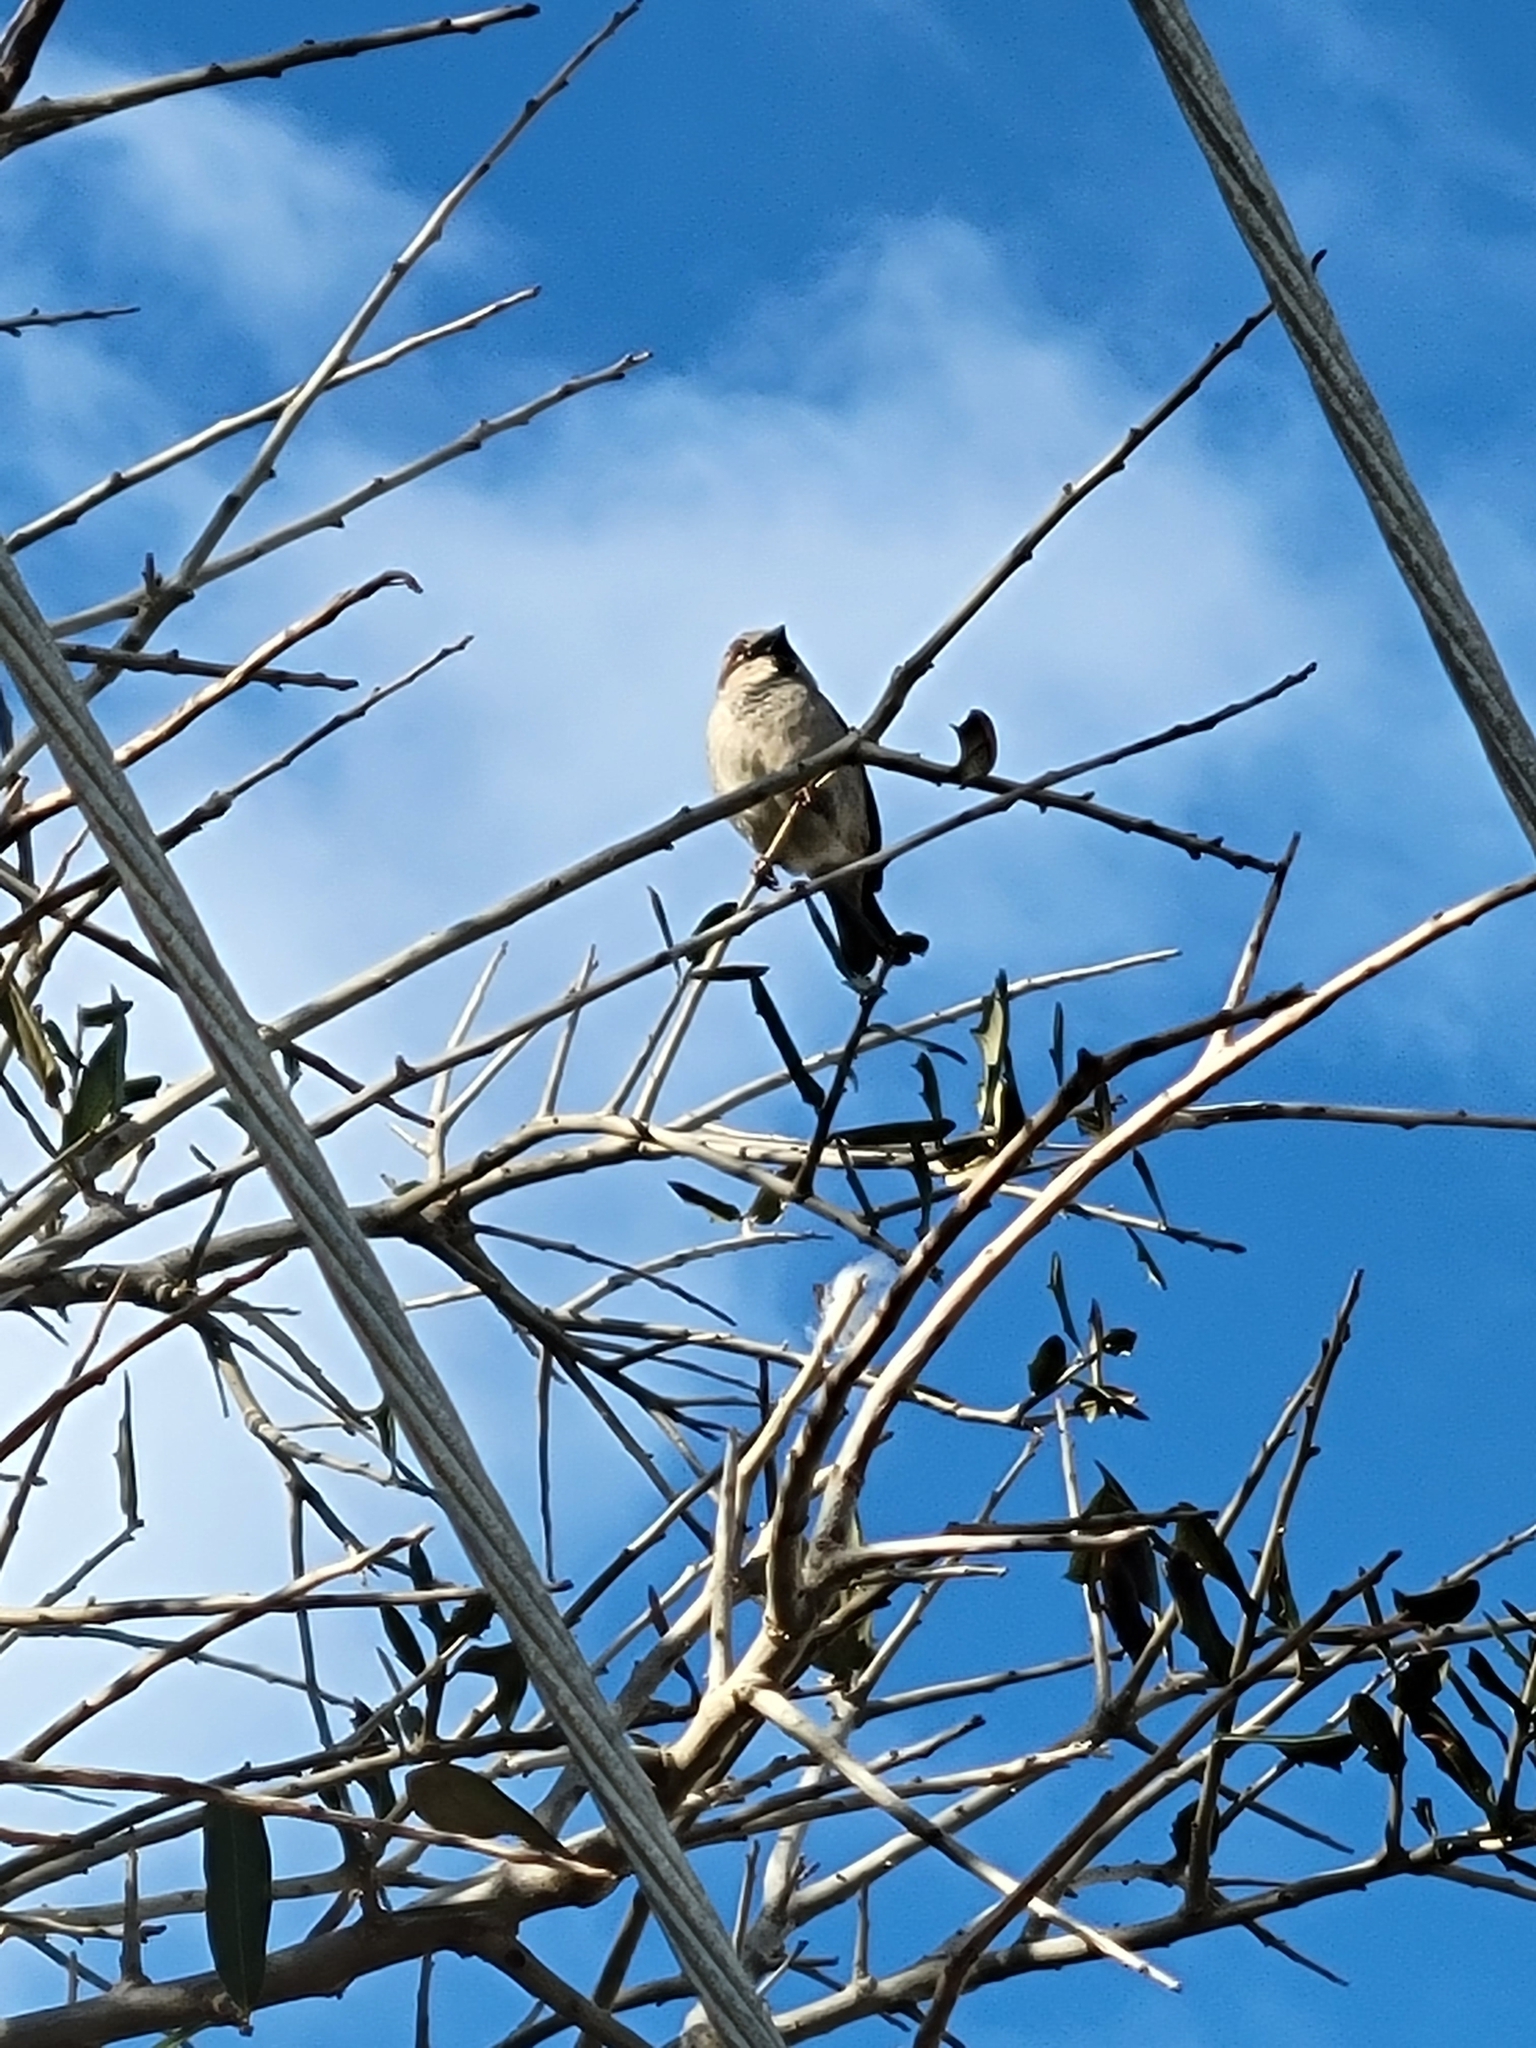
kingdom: Animalia
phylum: Chordata
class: Aves
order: Passeriformes
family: Passeridae
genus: Passer
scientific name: Passer domesticus
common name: House sparrow
